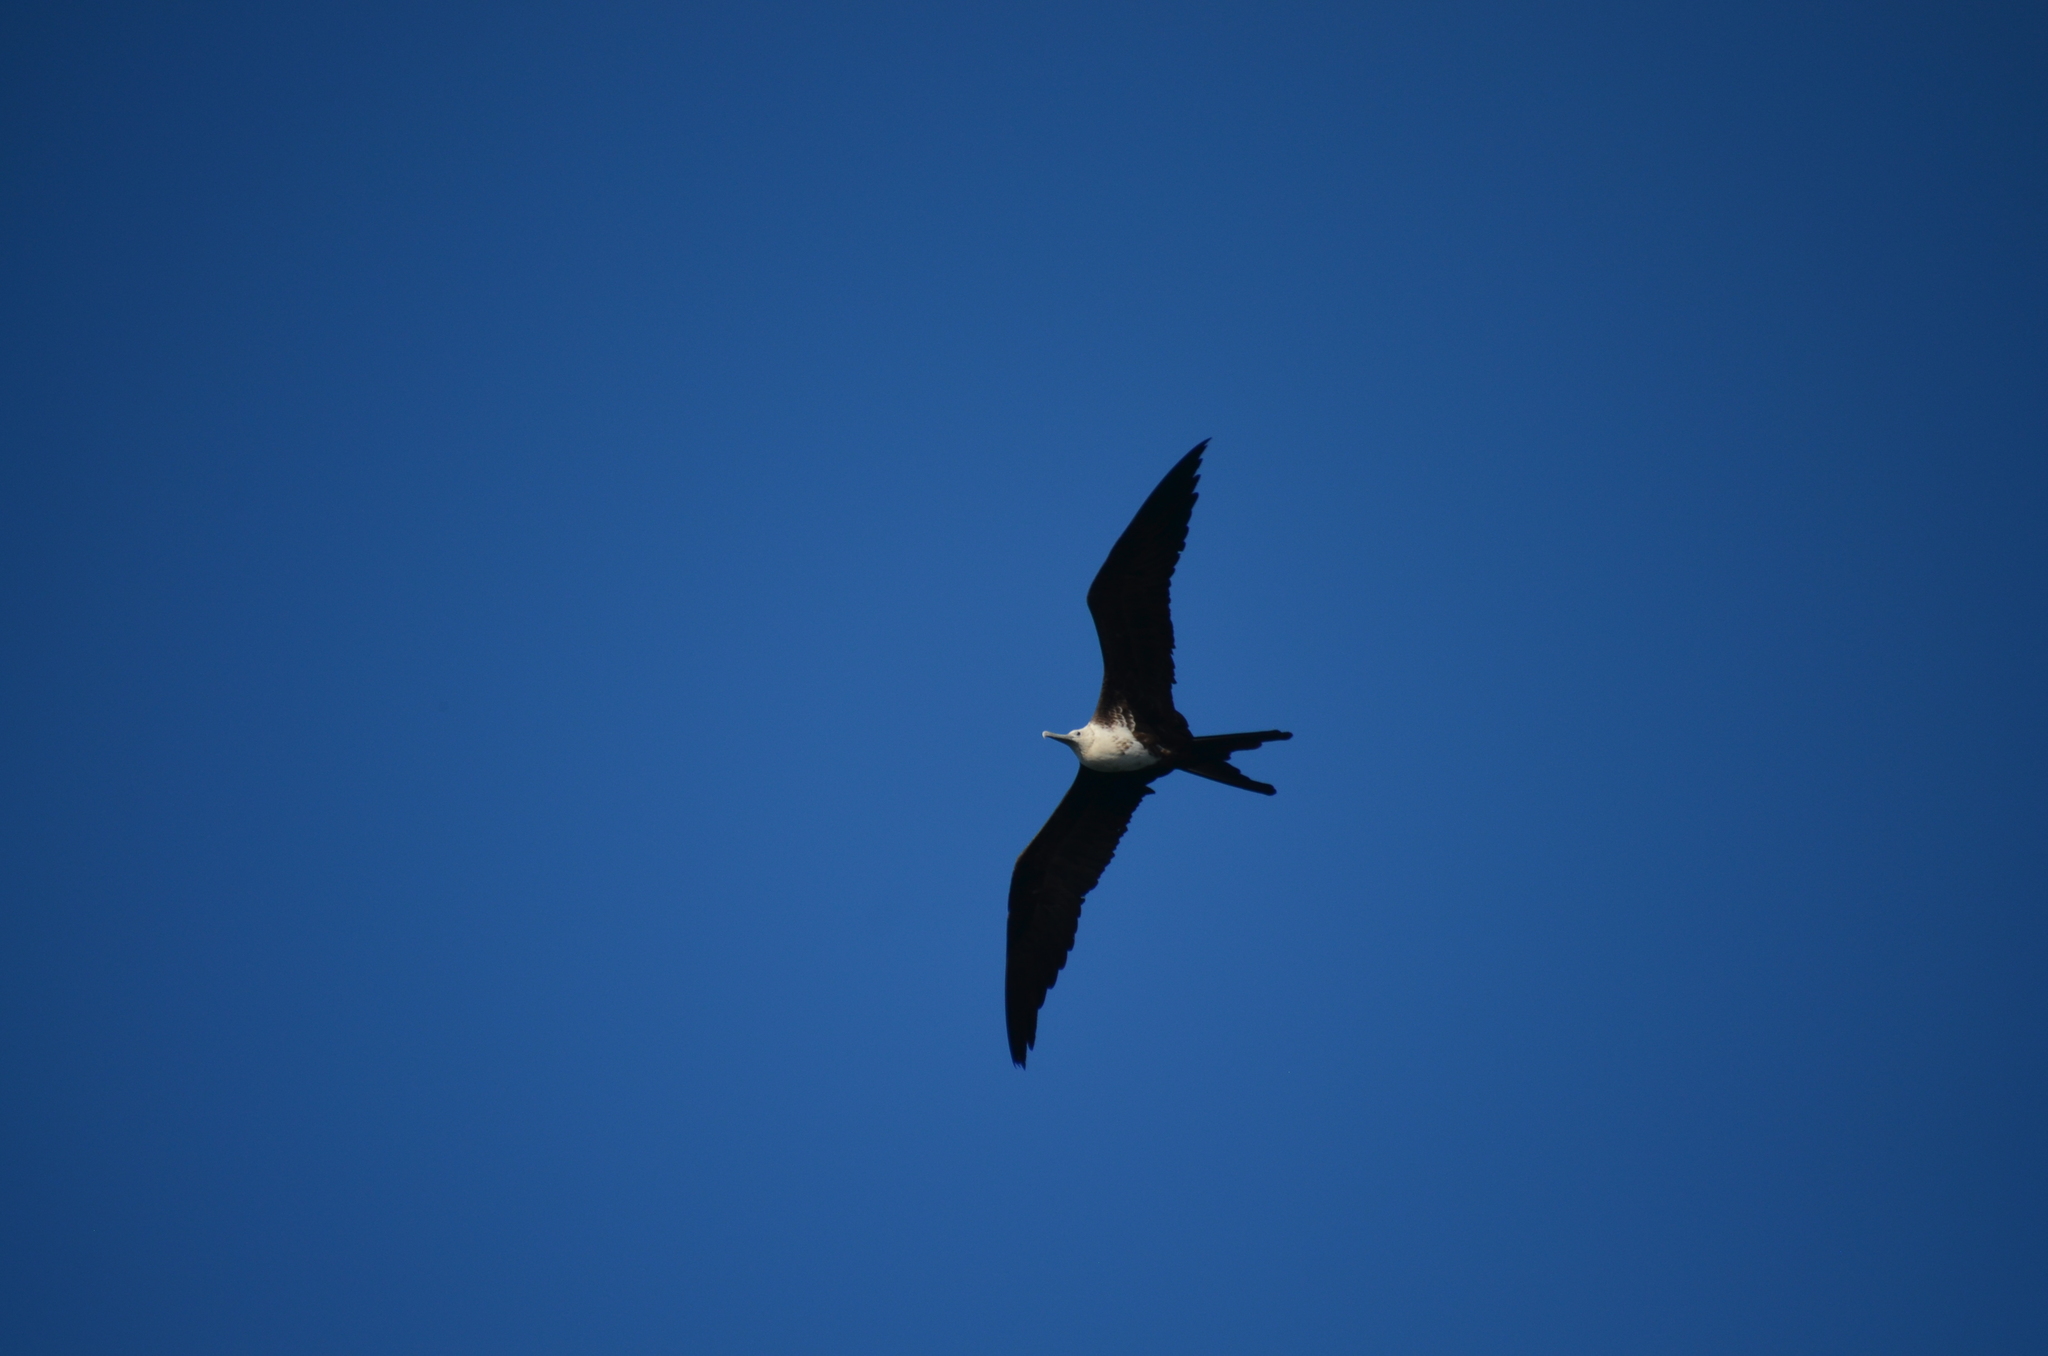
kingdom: Animalia
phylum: Chordata
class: Aves
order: Suliformes
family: Fregatidae
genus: Fregata
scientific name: Fregata magnificens
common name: Magnificent frigatebird
